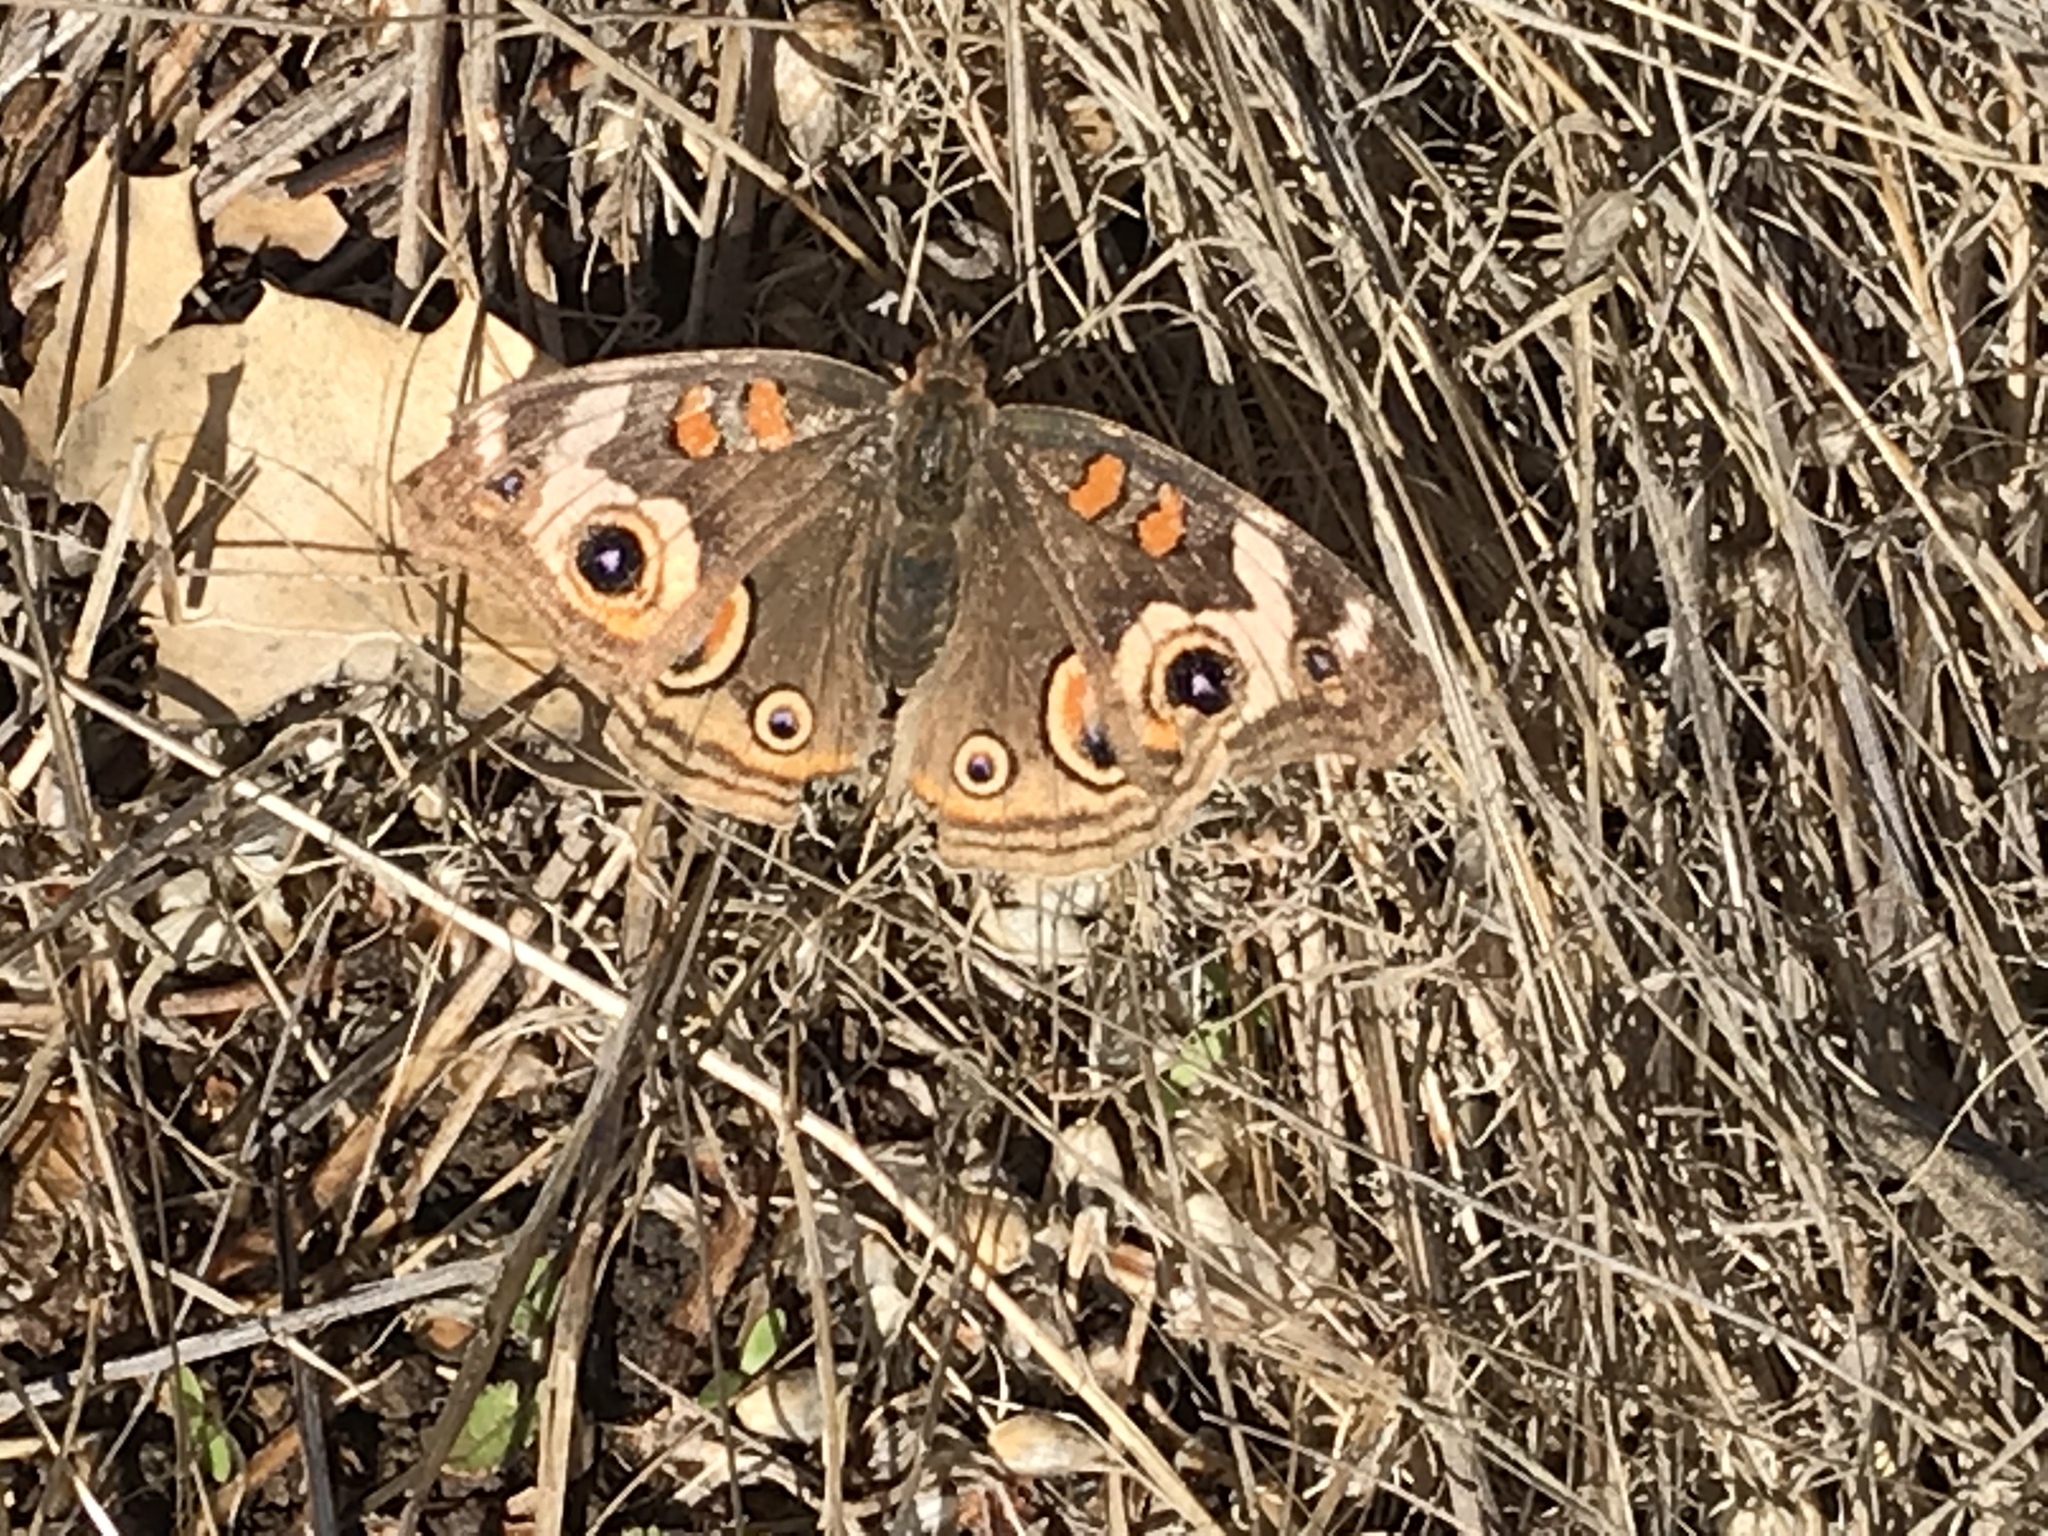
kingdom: Animalia
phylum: Arthropoda
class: Insecta
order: Lepidoptera
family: Nymphalidae
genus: Junonia
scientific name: Junonia grisea
